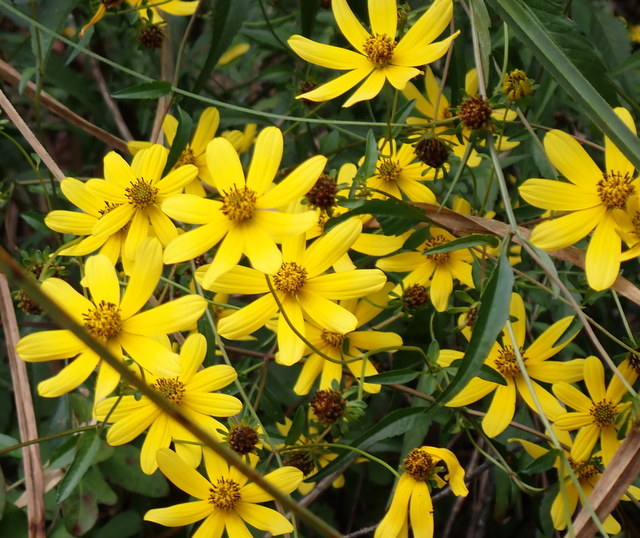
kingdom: Plantae
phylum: Tracheophyta
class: Magnoliopsida
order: Asterales
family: Asteraceae
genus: Bidens
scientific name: Bidens mitis
